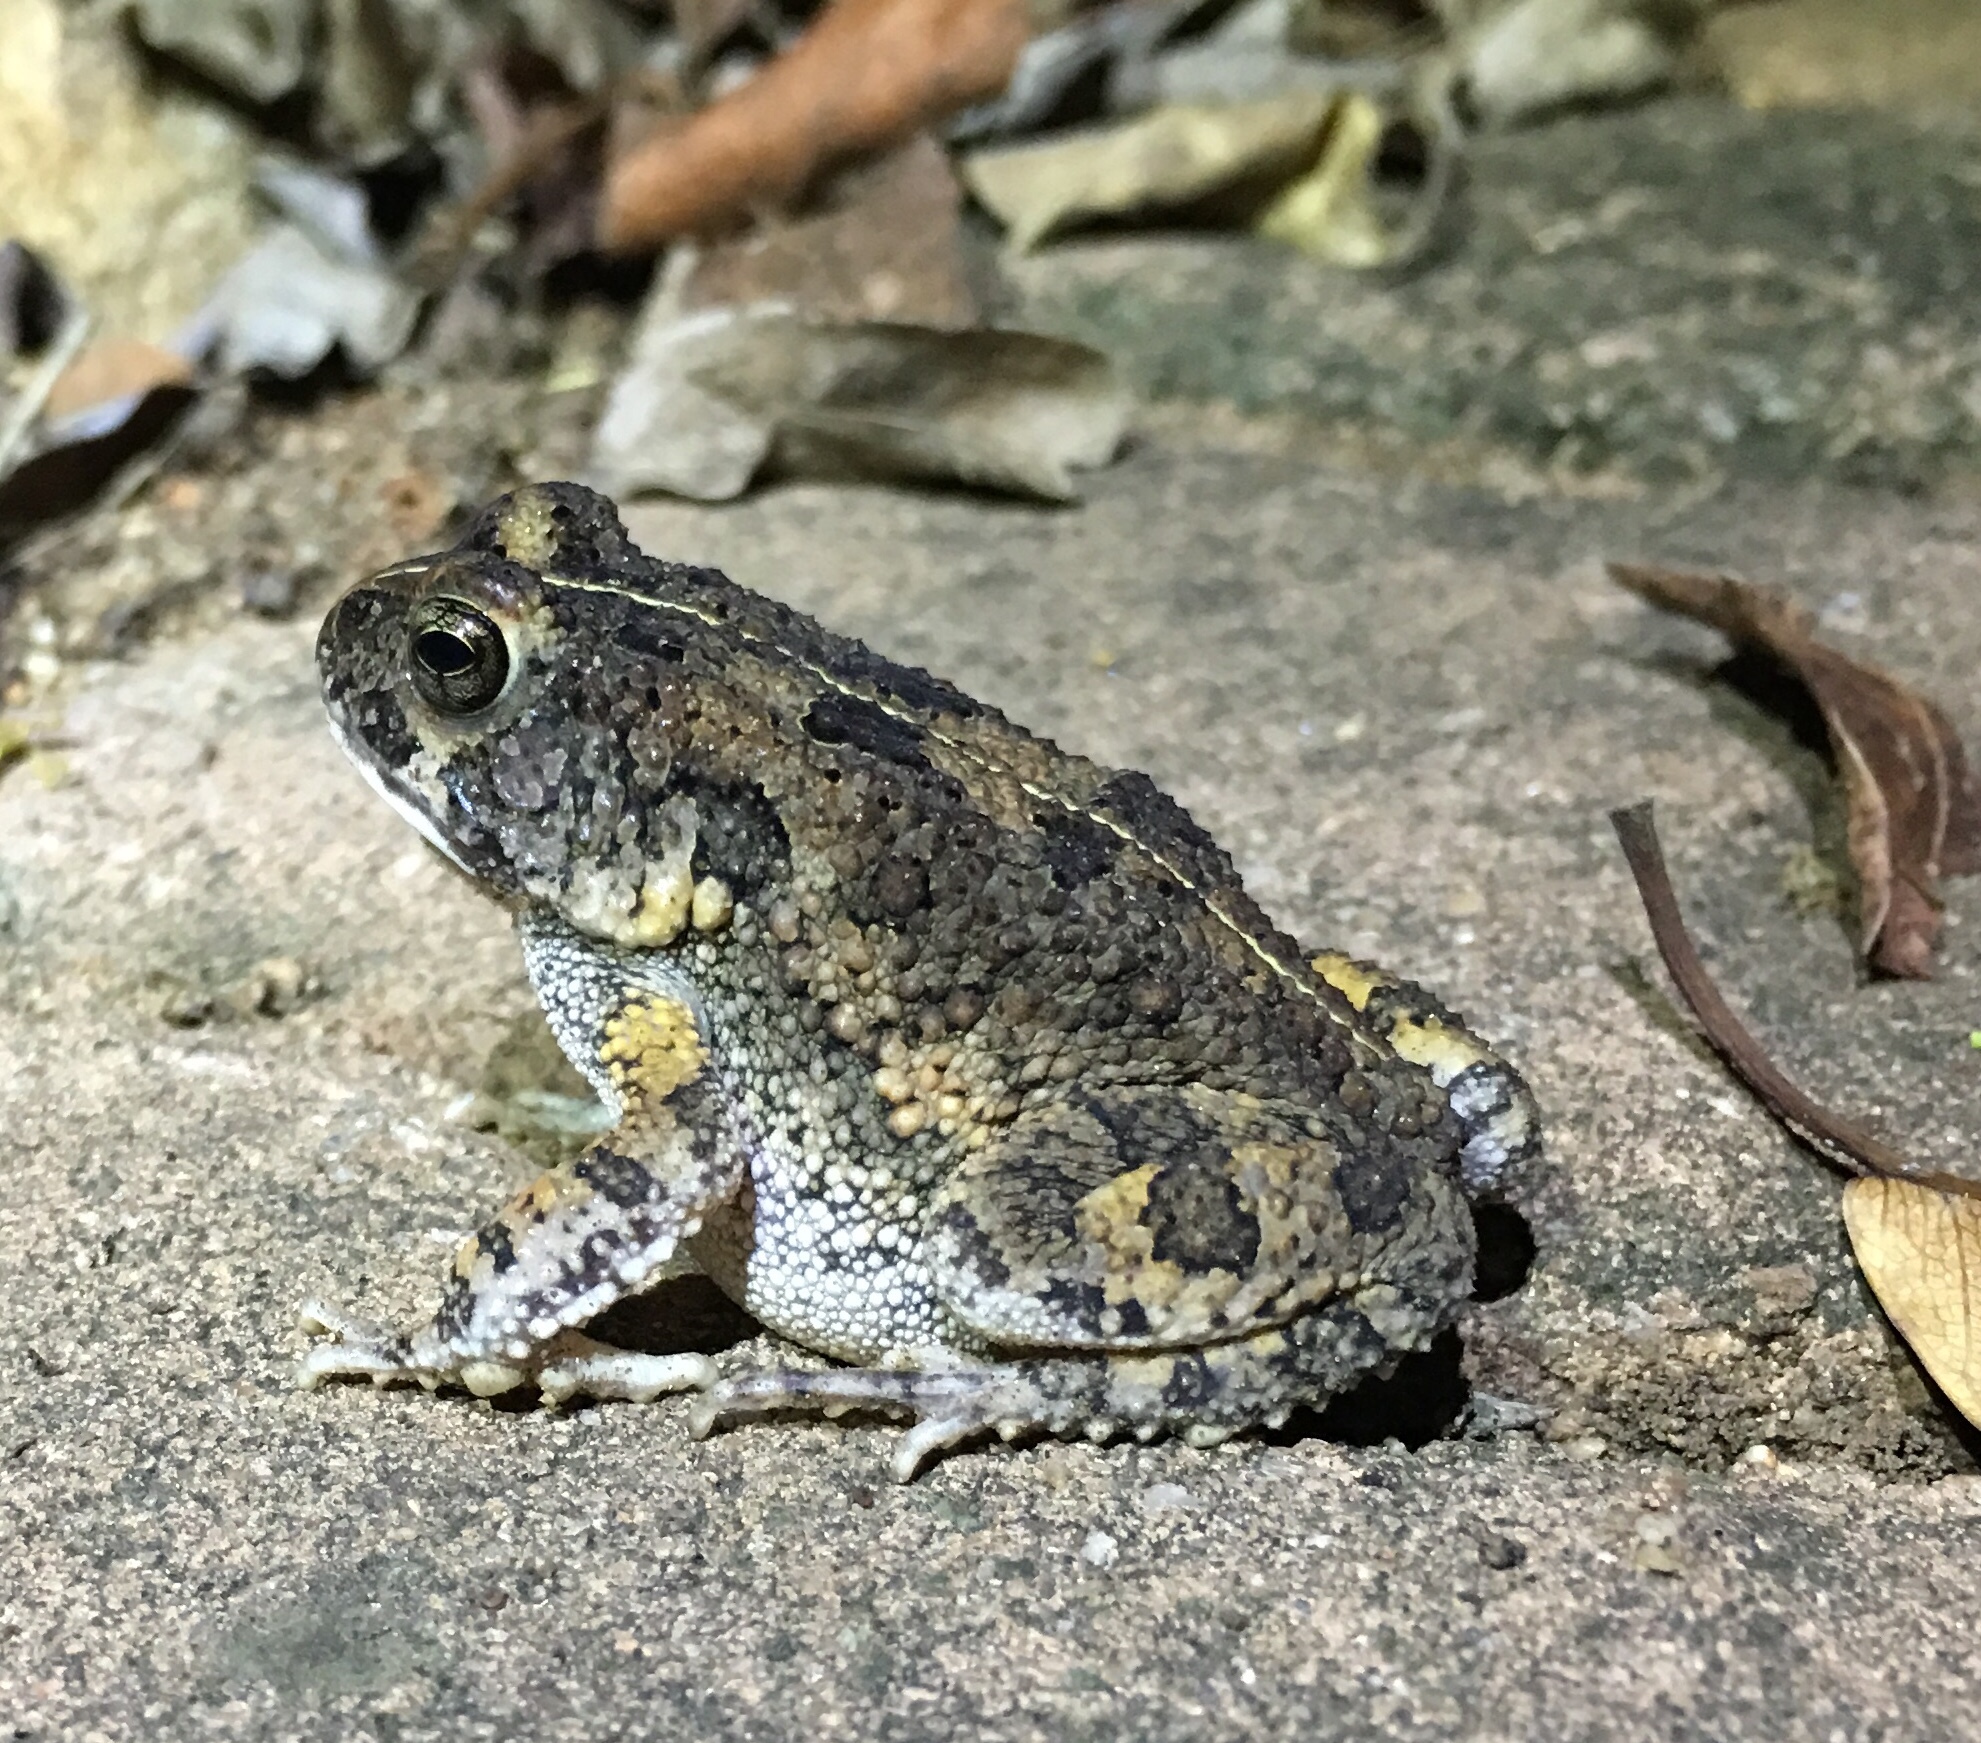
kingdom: Animalia
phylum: Chordata
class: Amphibia
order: Anura
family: Bufonidae
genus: Sclerophrys
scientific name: Sclerophrys pusilla
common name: Merten's striped toad
